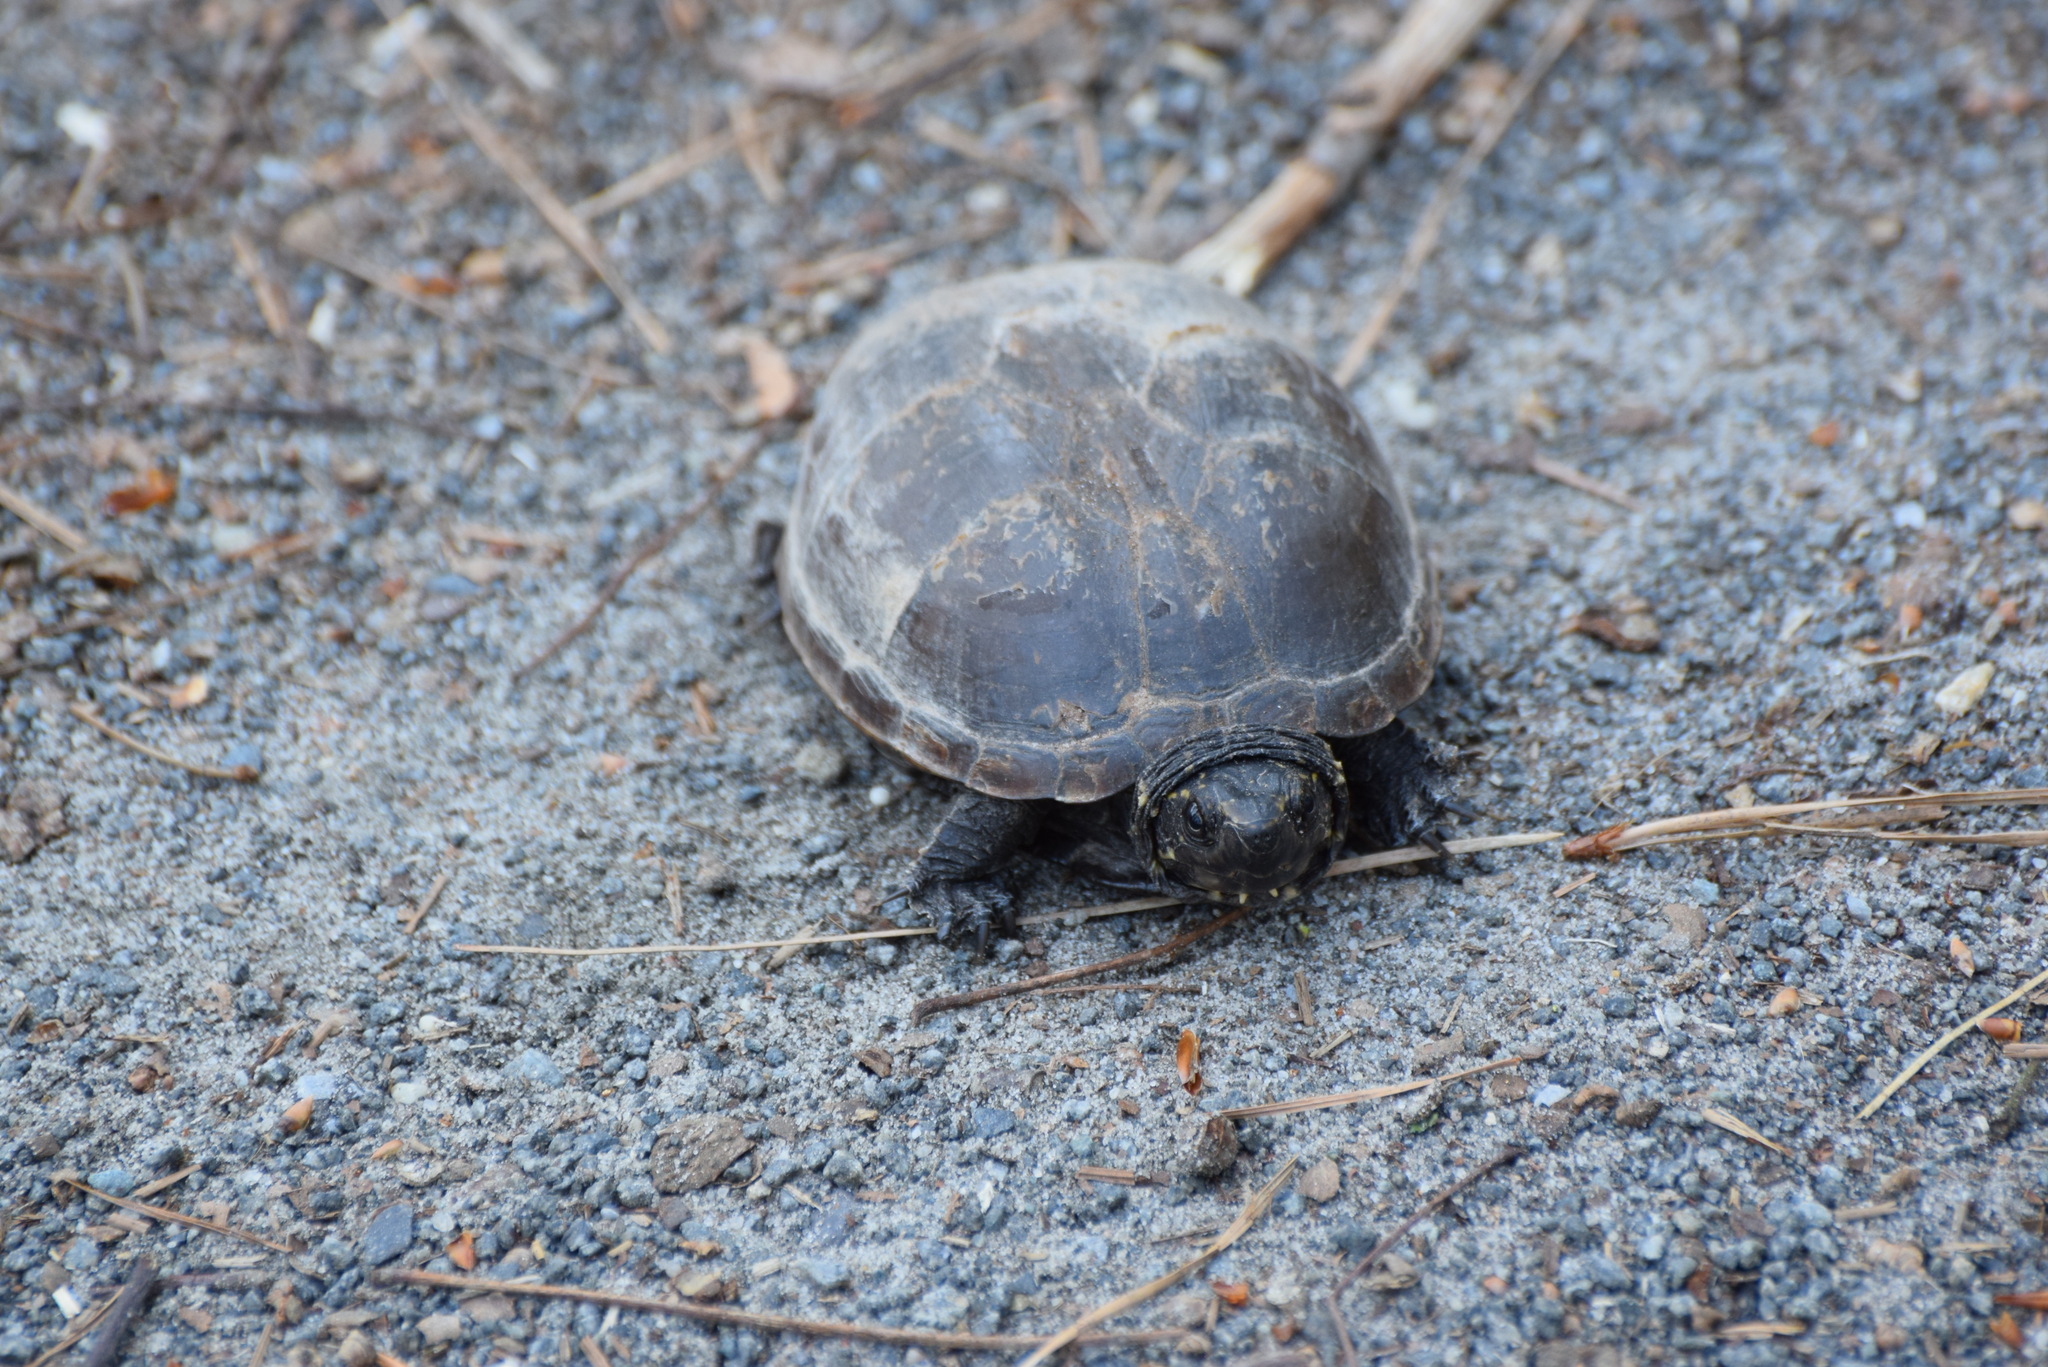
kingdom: Animalia
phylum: Chordata
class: Testudines
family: Kinosternidae
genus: Kinosternon
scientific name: Kinosternon baurii
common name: Striped mud turtle
